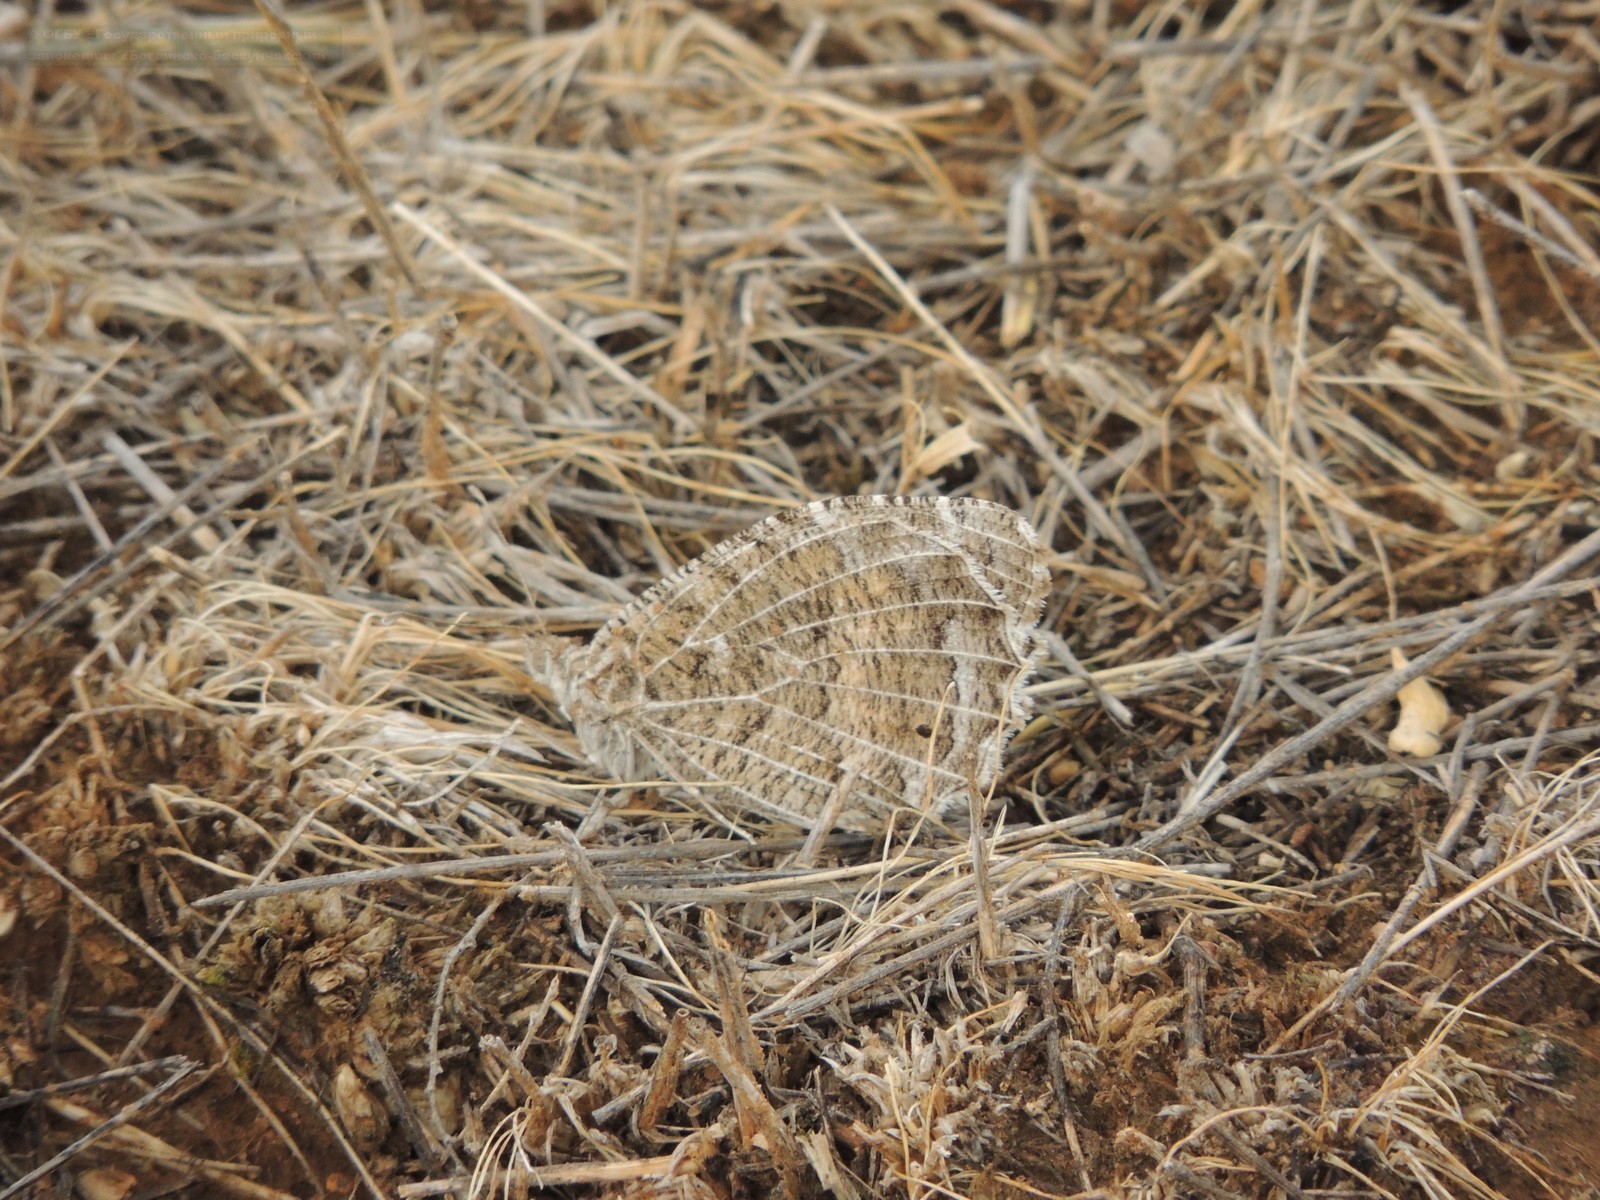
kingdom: Animalia
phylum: Arthropoda
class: Insecta
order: Lepidoptera
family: Nymphalidae
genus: Satyrus
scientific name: Satyrus Chazara persephone
